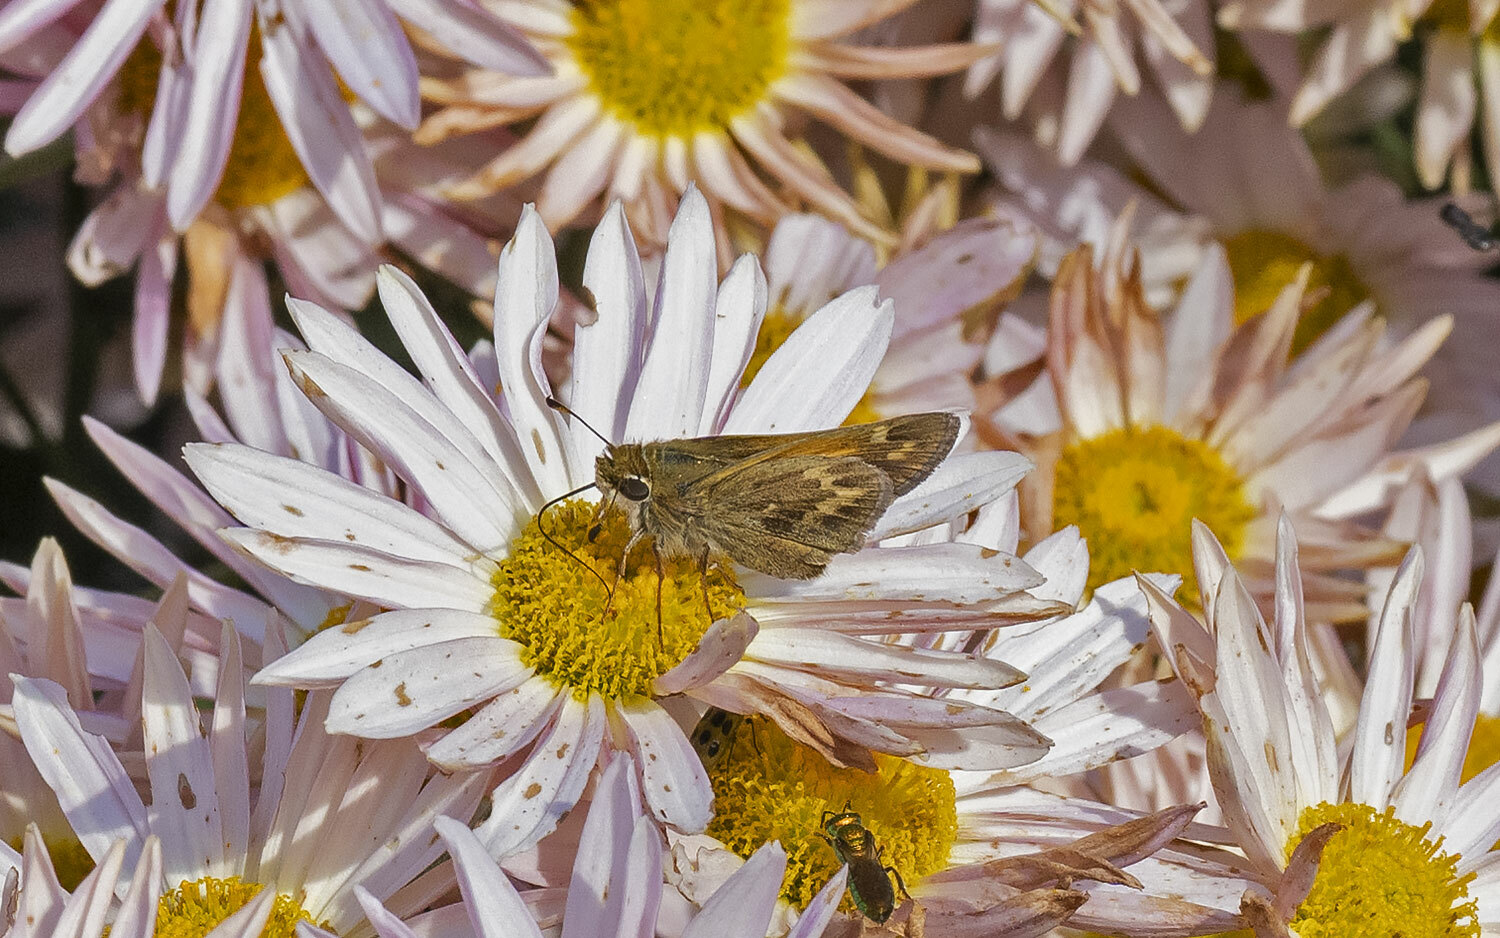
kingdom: Animalia
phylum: Arthropoda
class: Insecta
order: Lepidoptera
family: Hesperiidae
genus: Atalopedes
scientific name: Atalopedes
